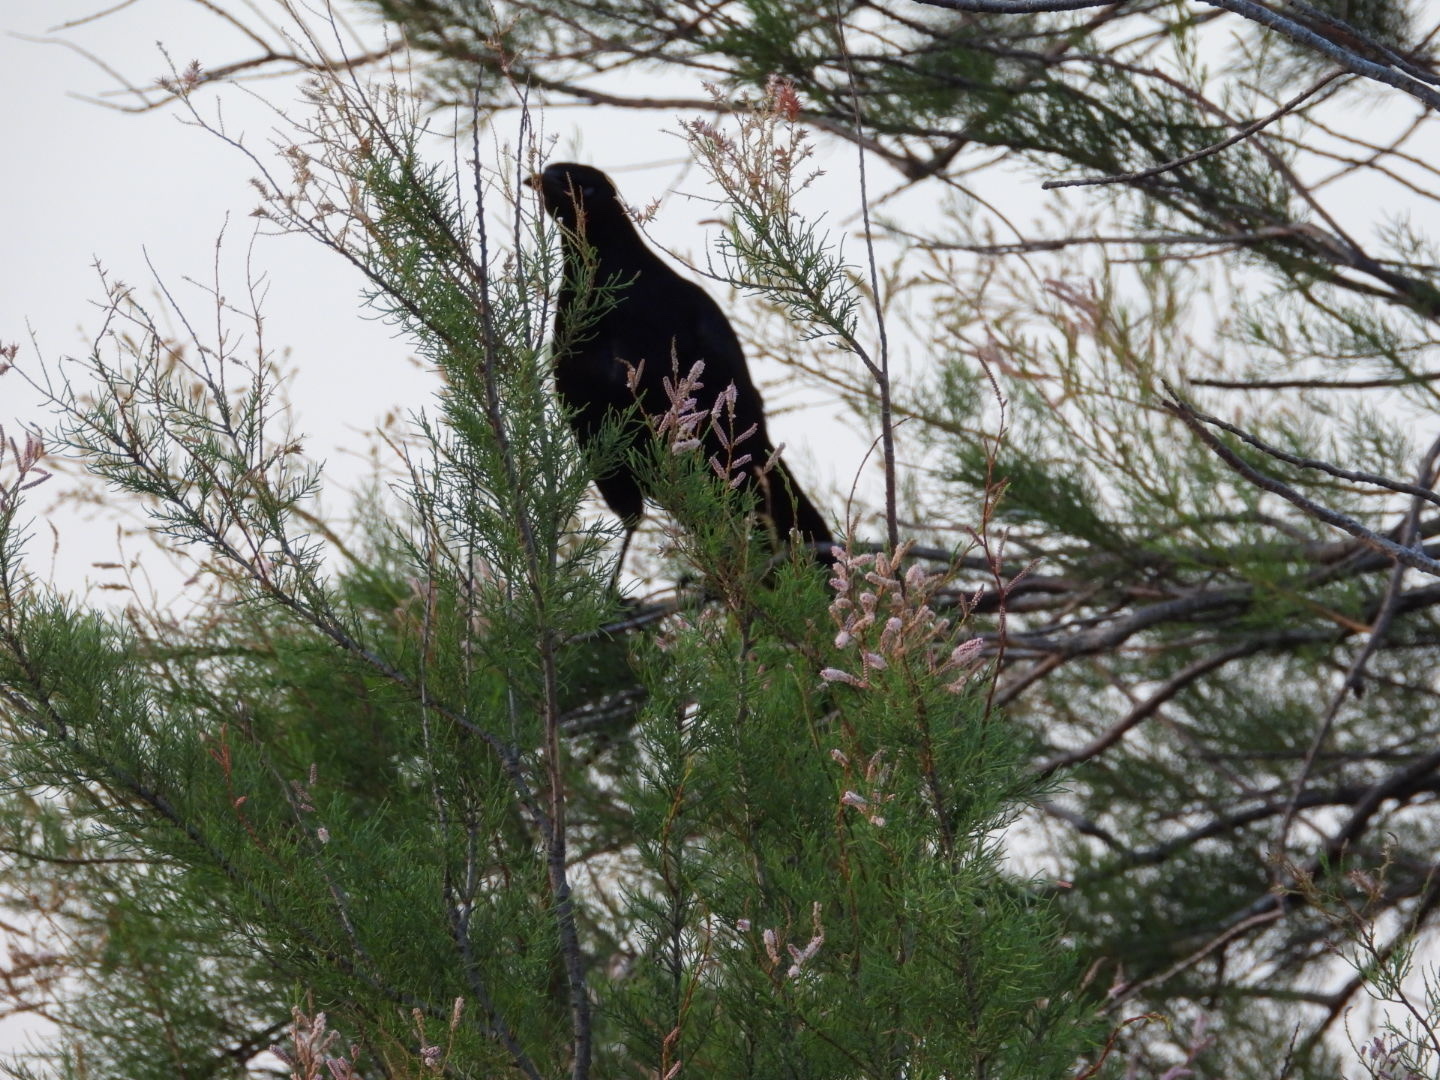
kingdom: Animalia
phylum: Chordata
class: Aves
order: Passeriformes
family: Icteridae
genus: Quiscalus
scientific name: Quiscalus mexicanus
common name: Great-tailed grackle
